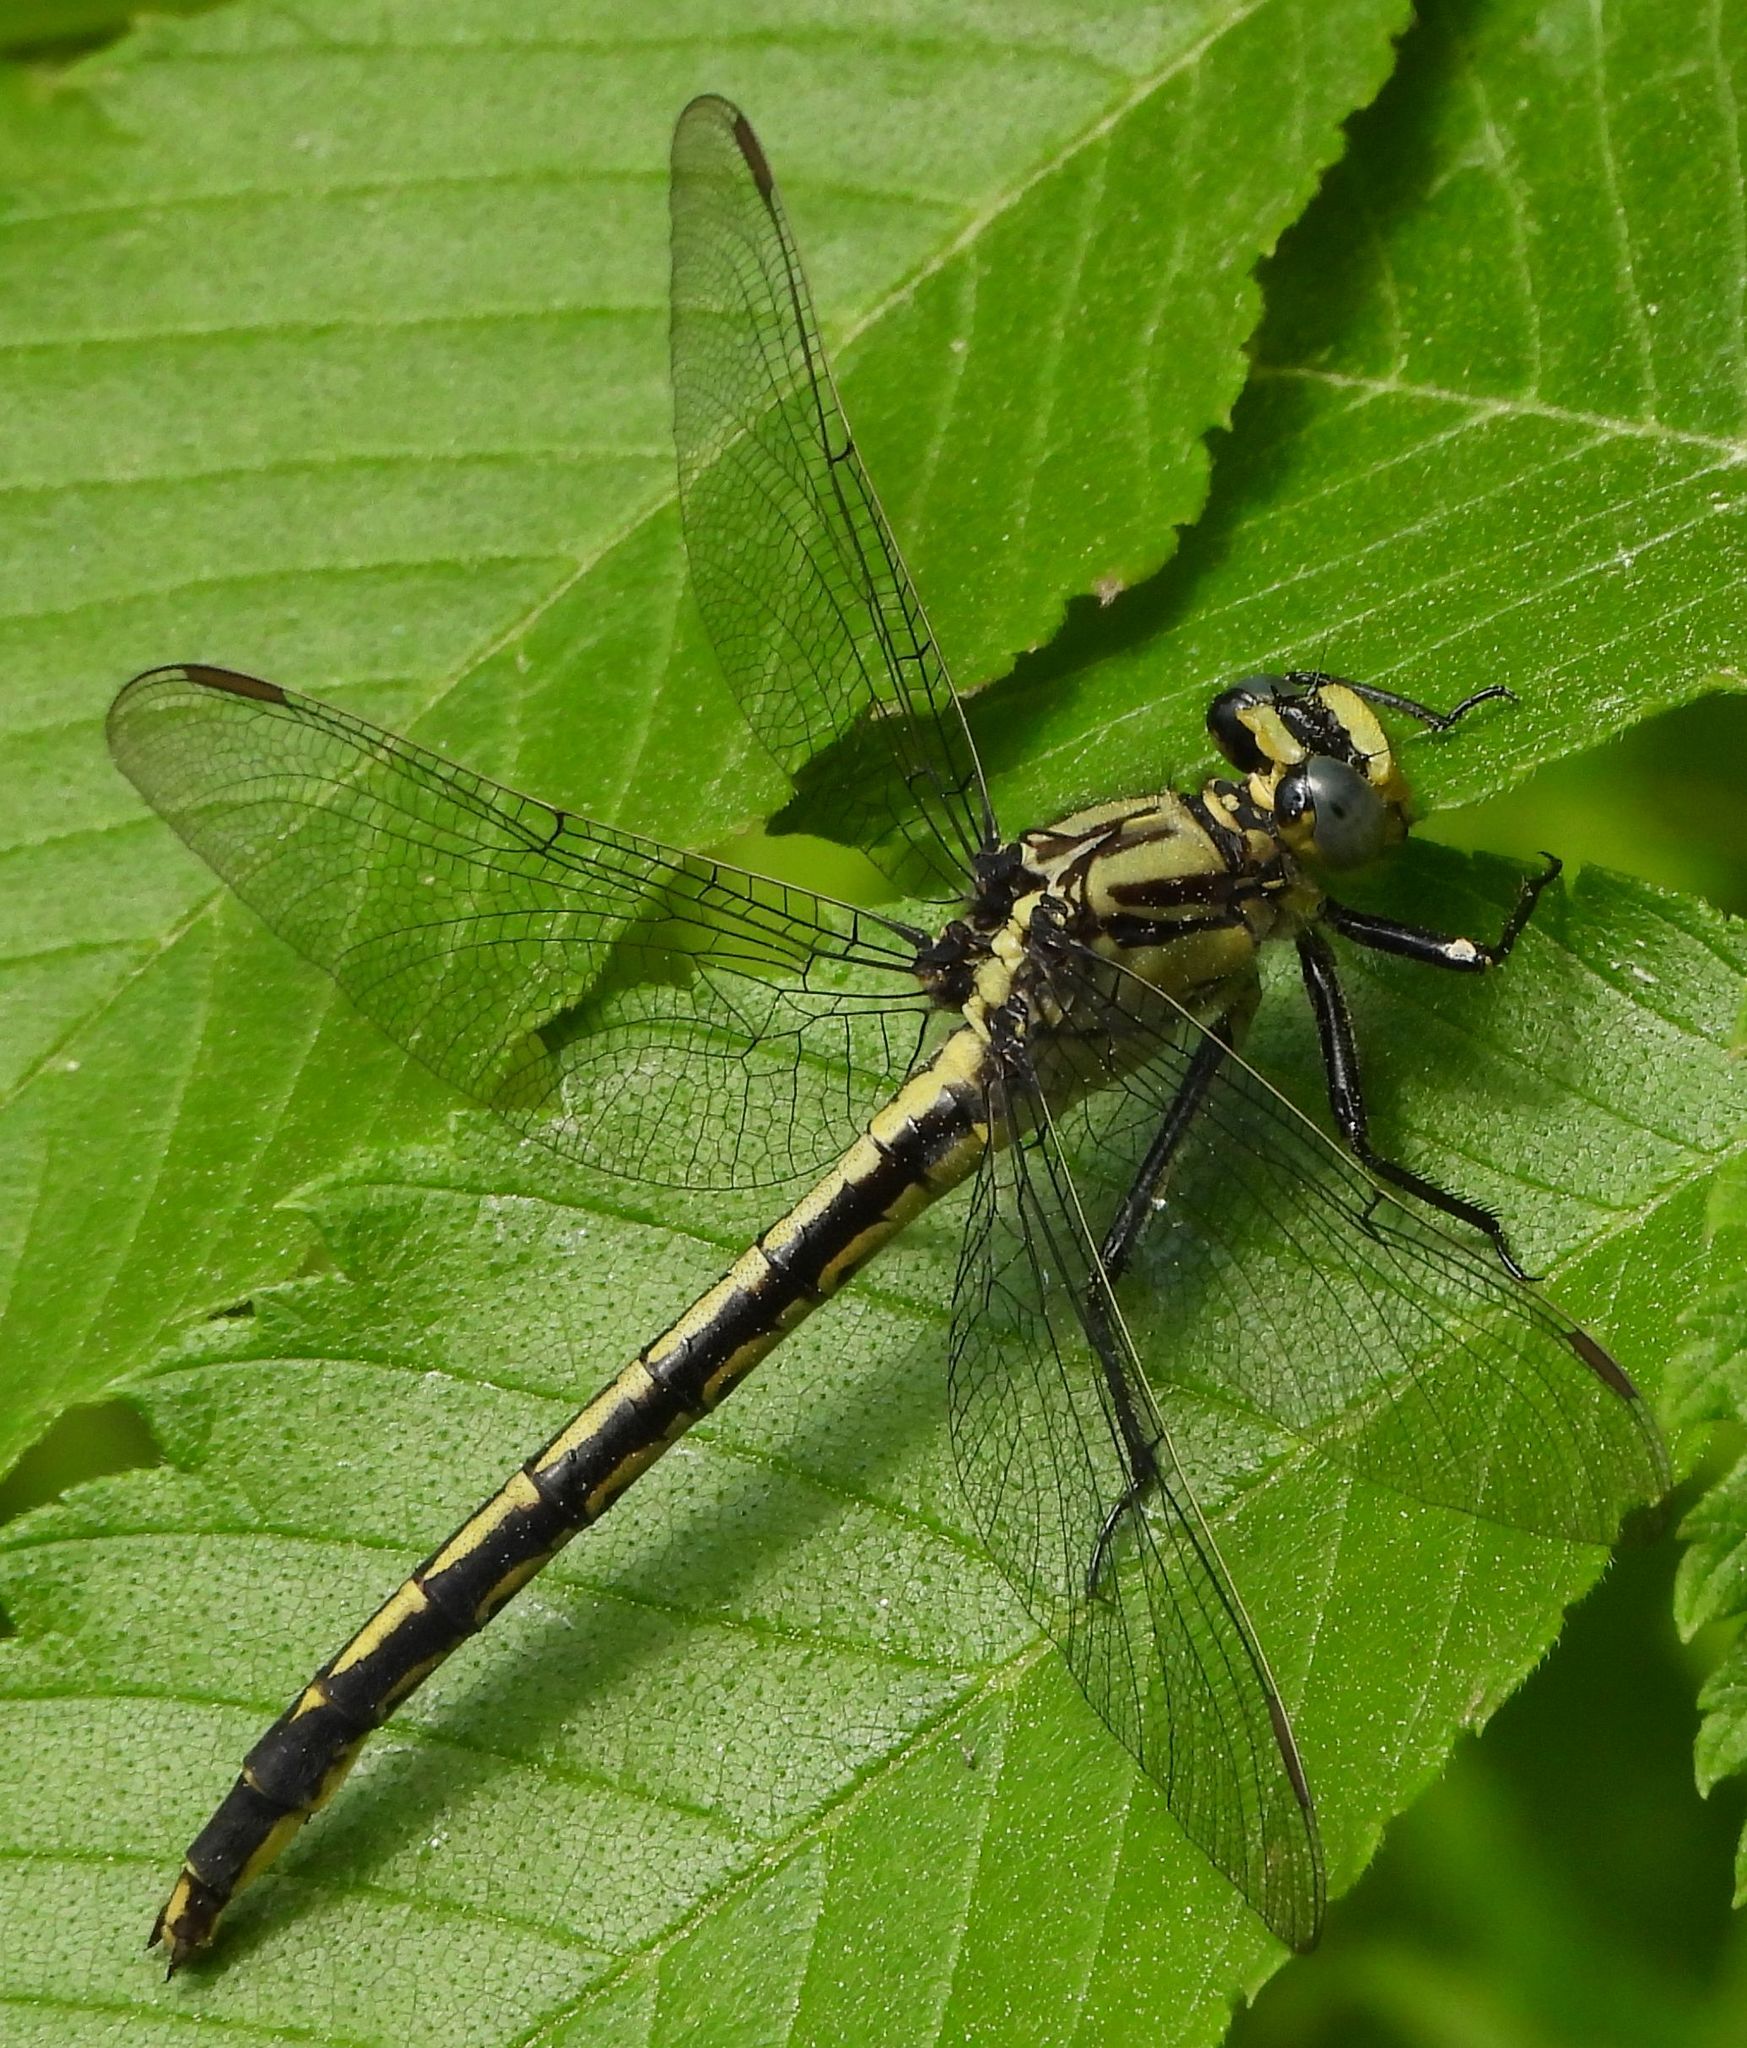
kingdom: Animalia
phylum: Arthropoda
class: Insecta
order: Odonata
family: Gomphidae
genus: Arigomphus
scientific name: Arigomphus cornutus
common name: Horned clubtail
